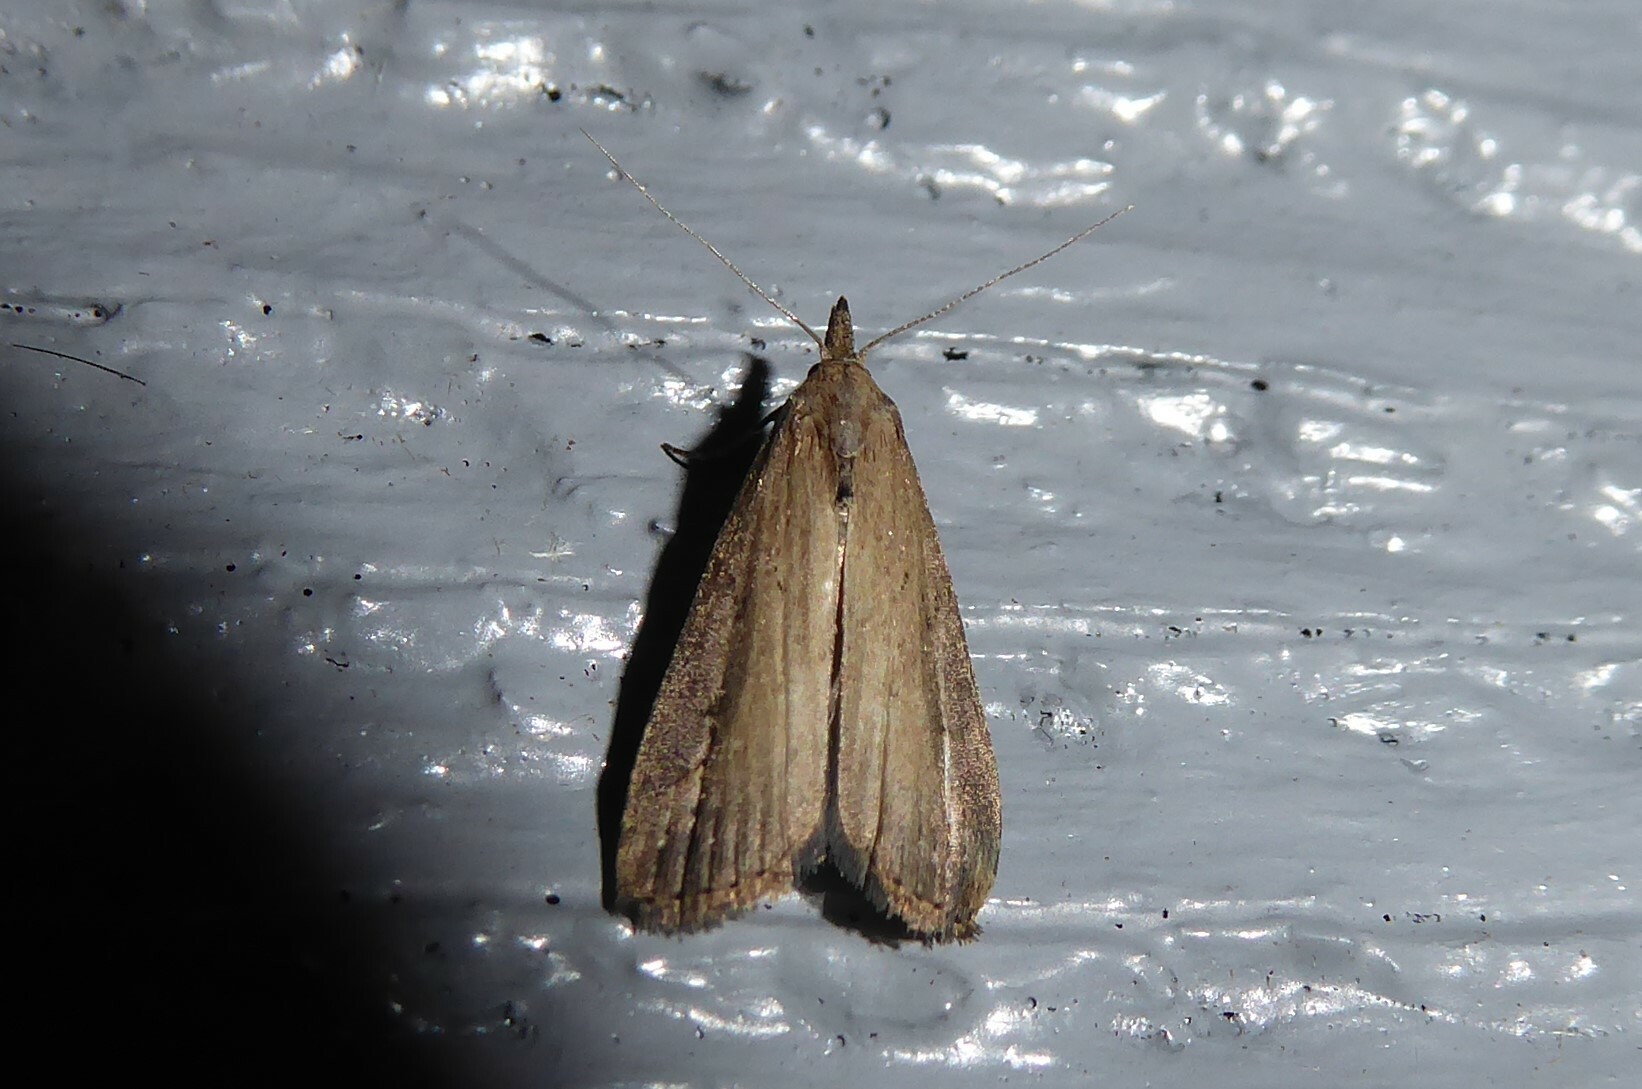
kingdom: Animalia
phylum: Arthropoda
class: Insecta
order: Lepidoptera
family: Erebidae
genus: Schrankia
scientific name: Schrankia costaestrigalis
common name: Pinion-streaked snout
